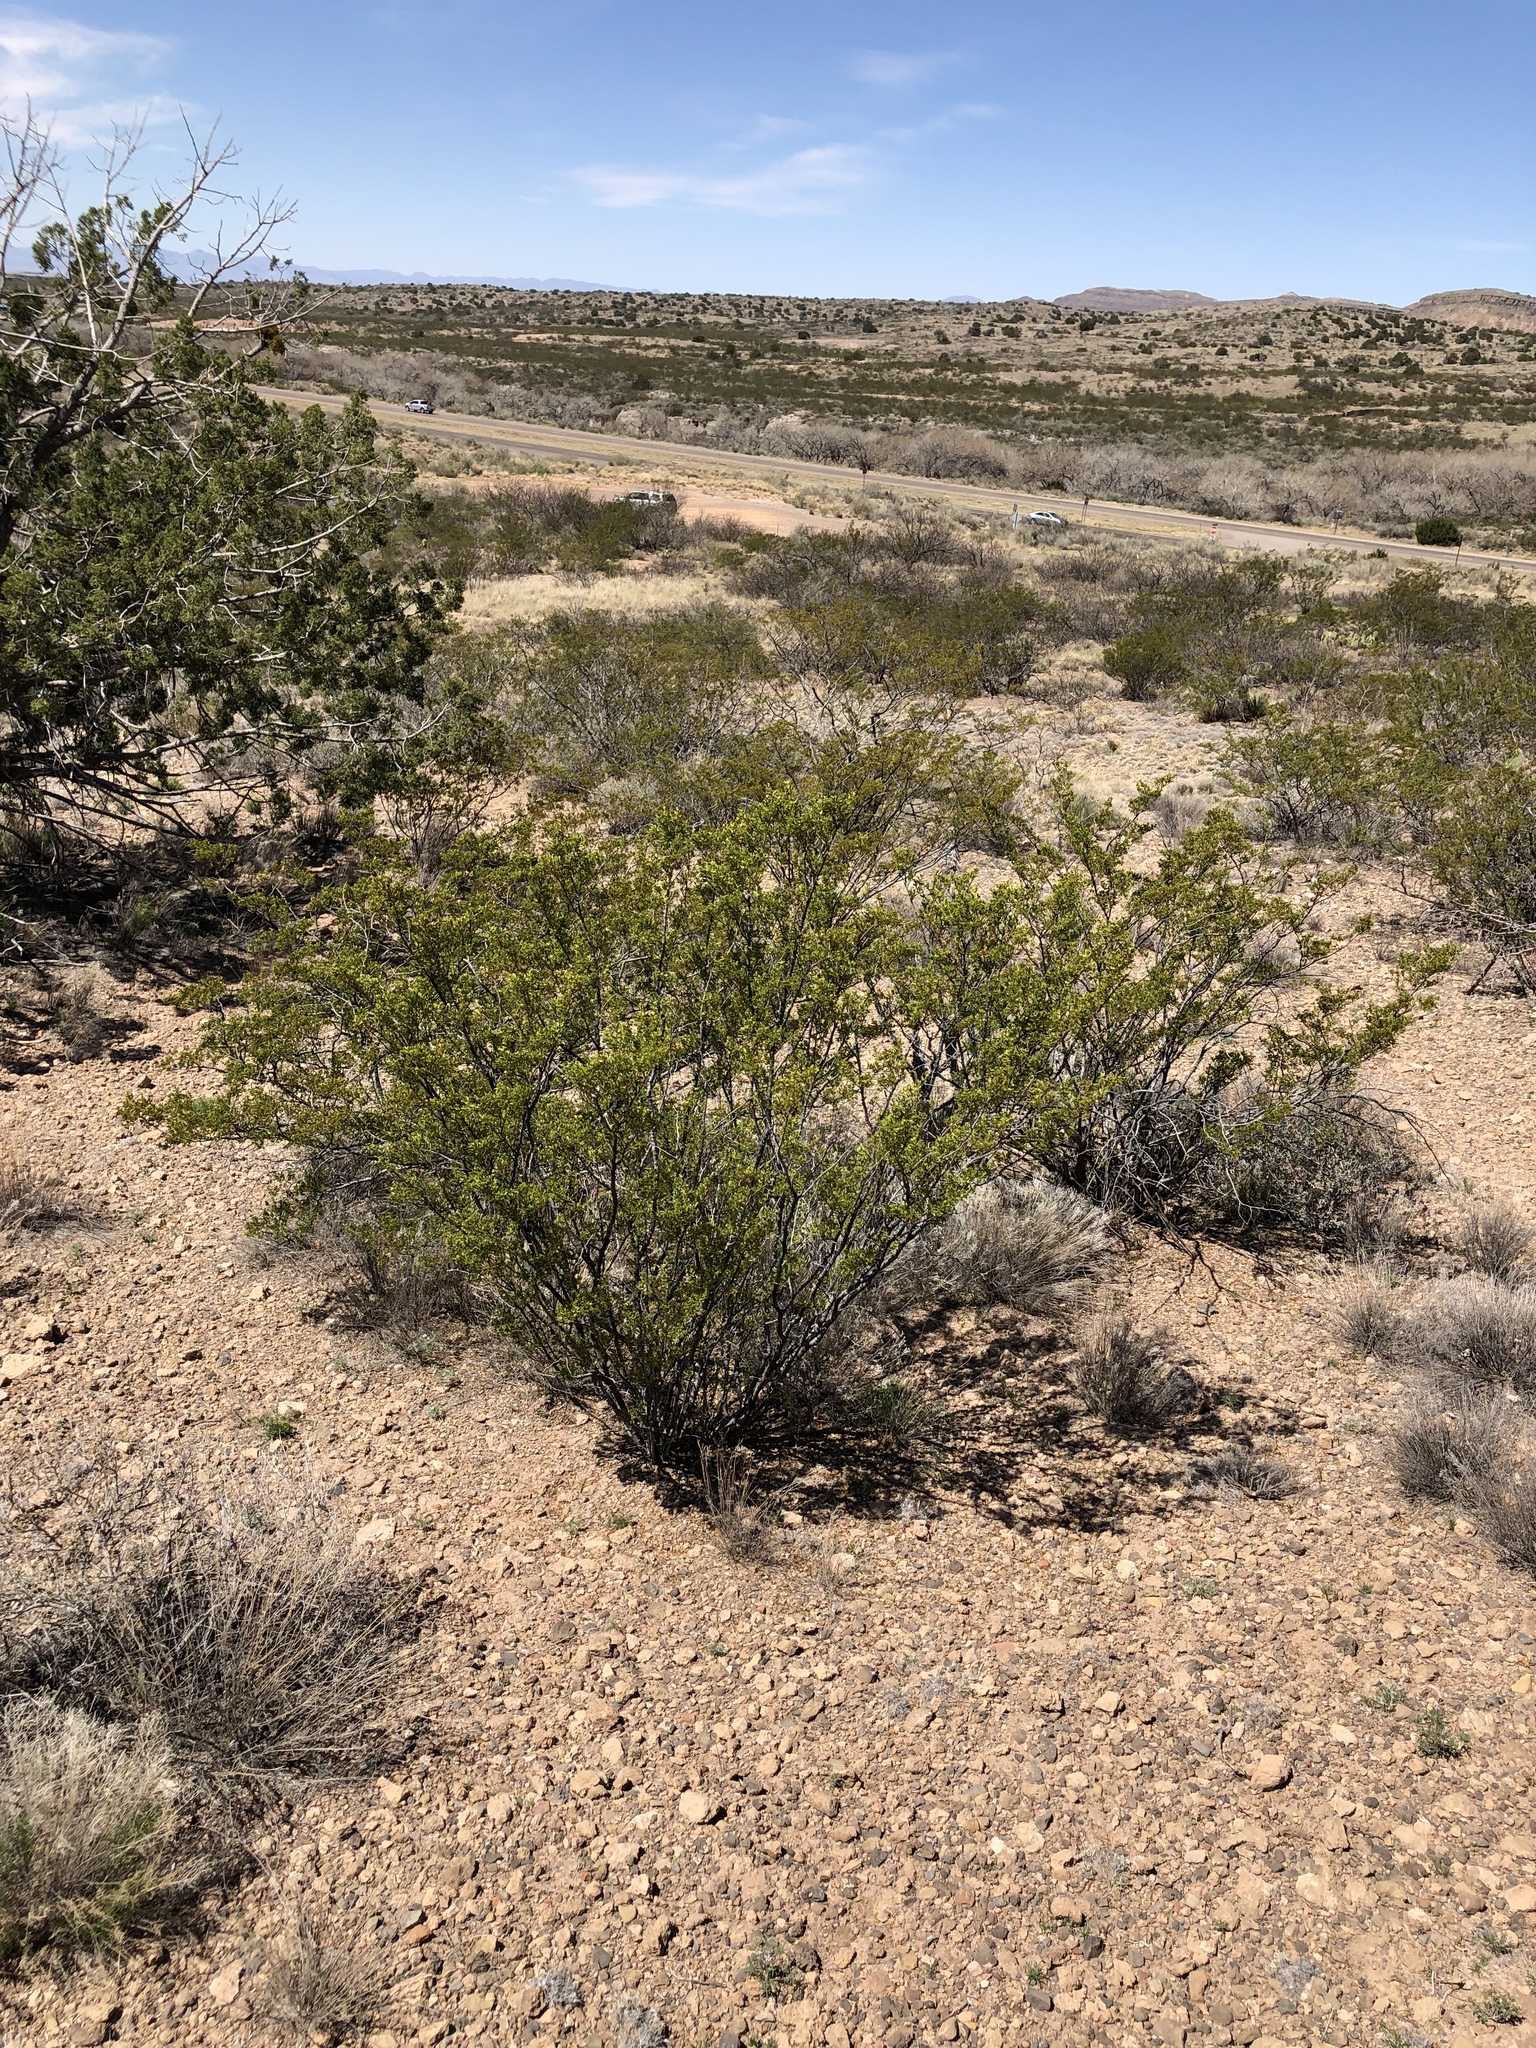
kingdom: Plantae
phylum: Tracheophyta
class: Magnoliopsida
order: Zygophyllales
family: Zygophyllaceae
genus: Larrea
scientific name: Larrea tridentata
